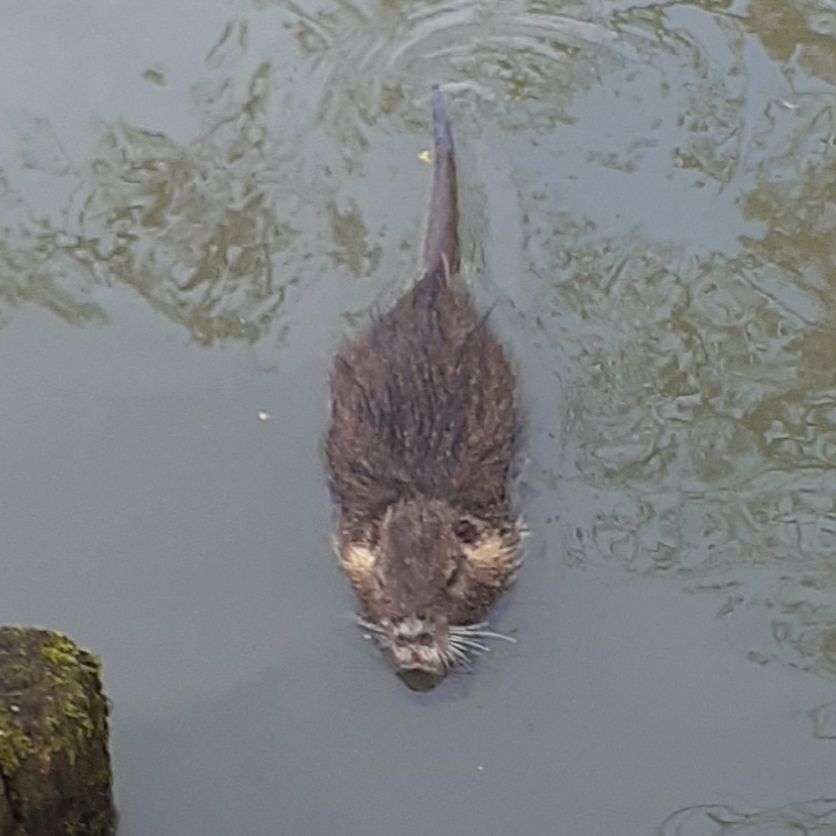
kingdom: Animalia
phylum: Chordata
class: Mammalia
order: Rodentia
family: Myocastoridae
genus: Myocastor
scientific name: Myocastor coypus
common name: Coypu
